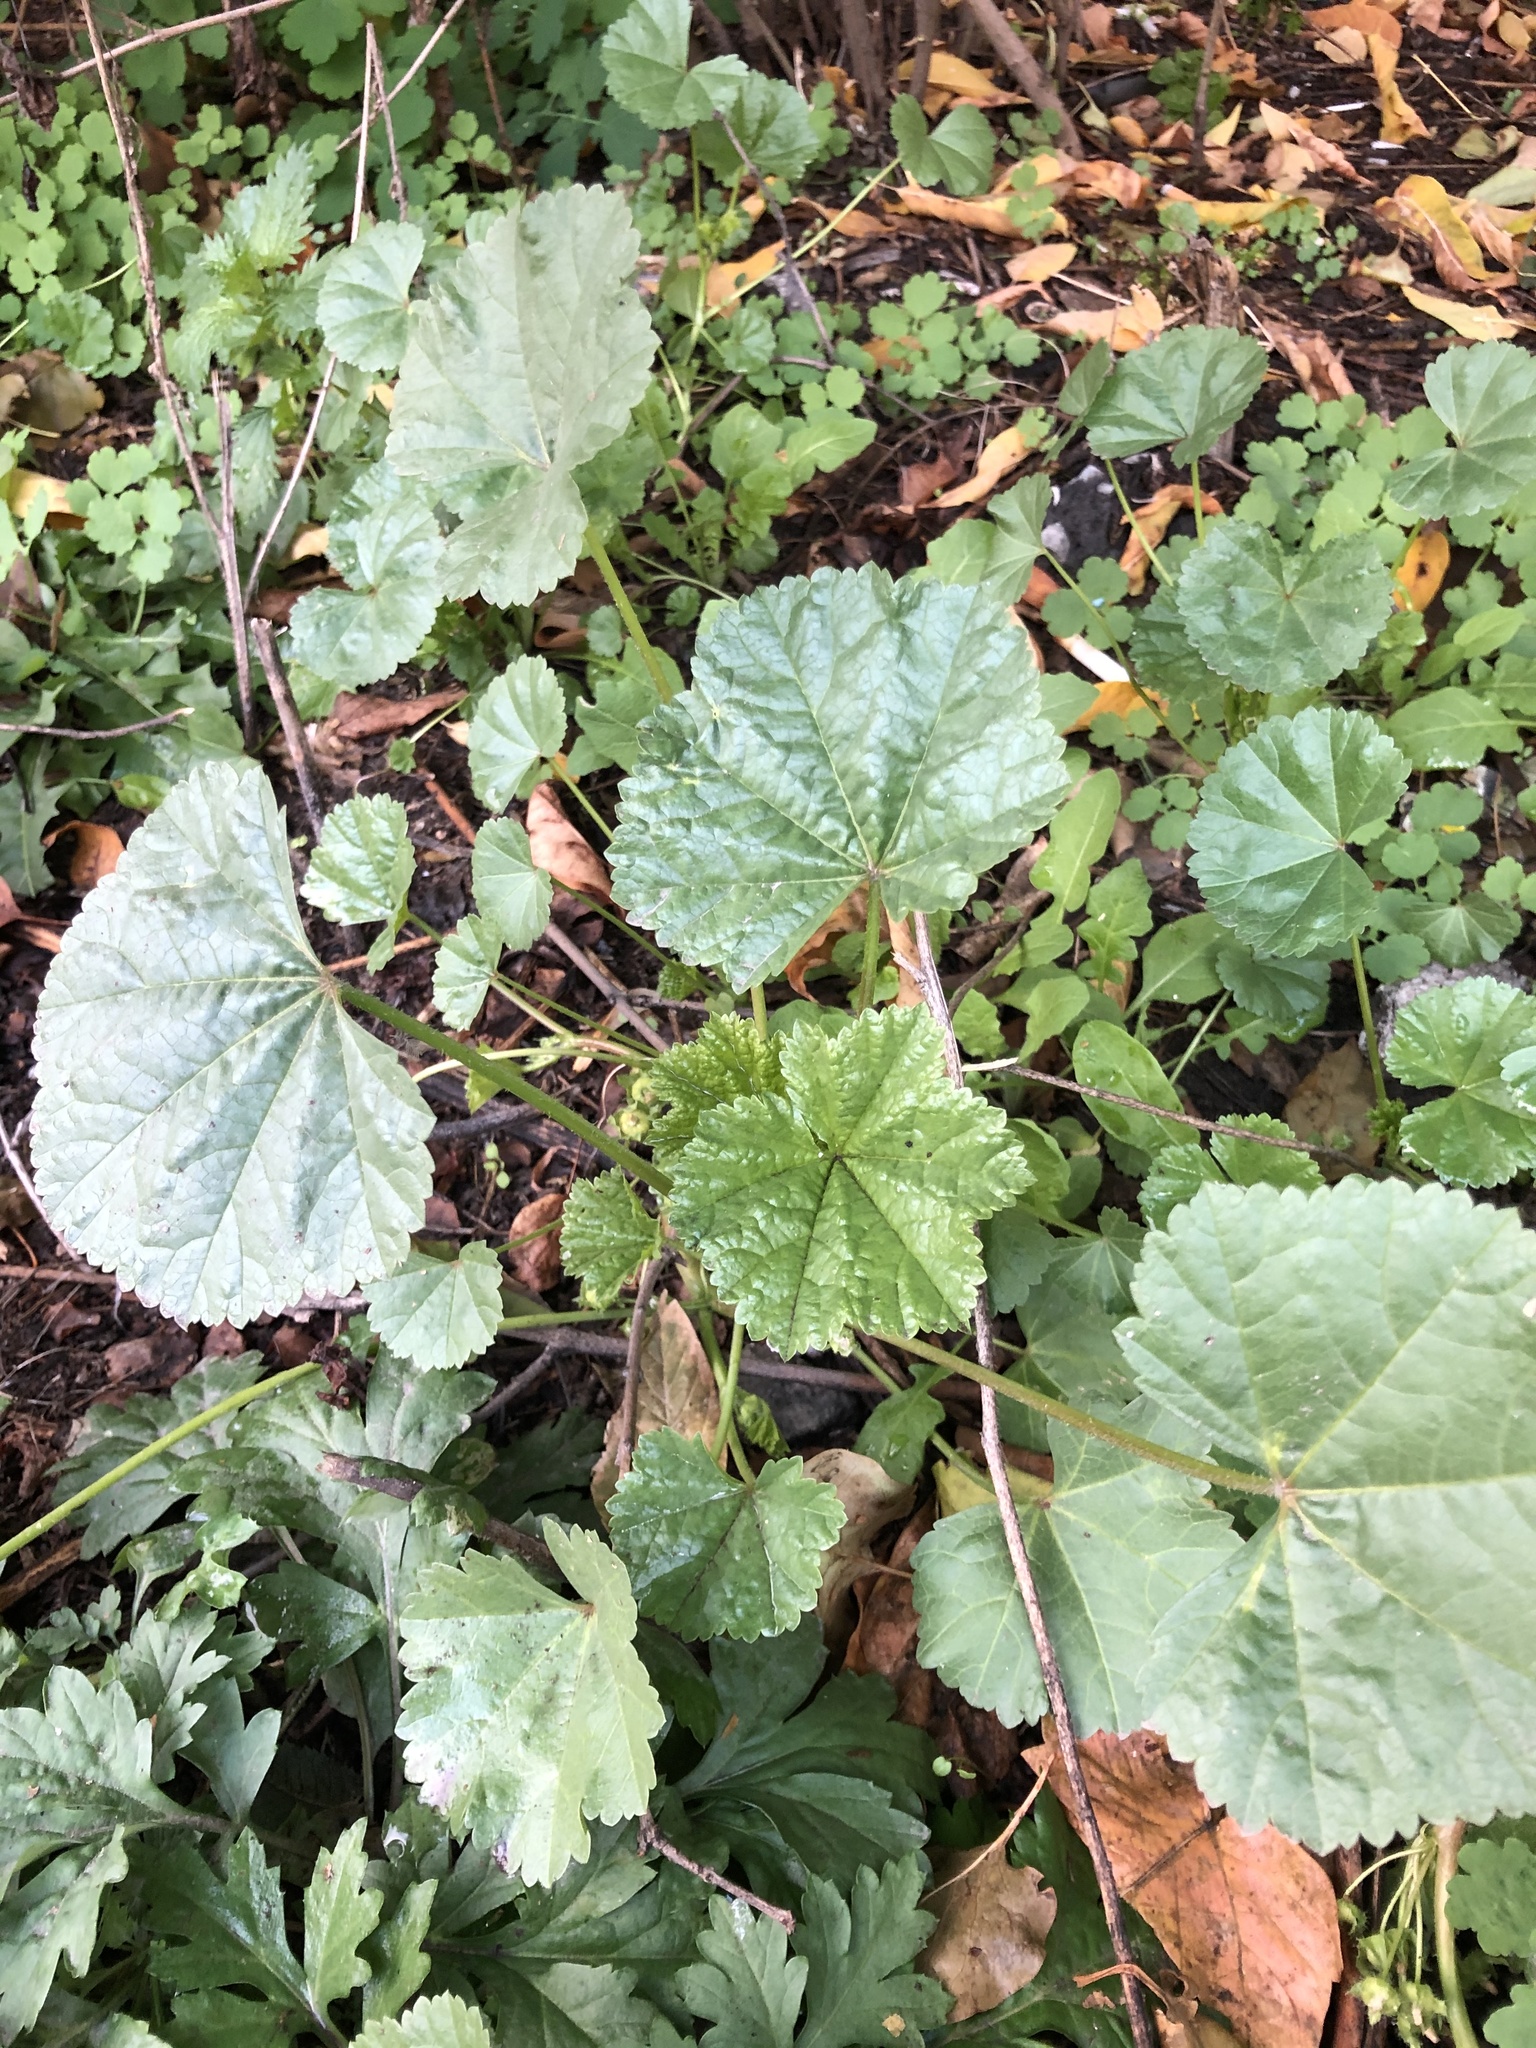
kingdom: Plantae
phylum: Tracheophyta
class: Magnoliopsida
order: Malvales
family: Malvaceae
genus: Malva
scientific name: Malva pusilla
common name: Small mallow
